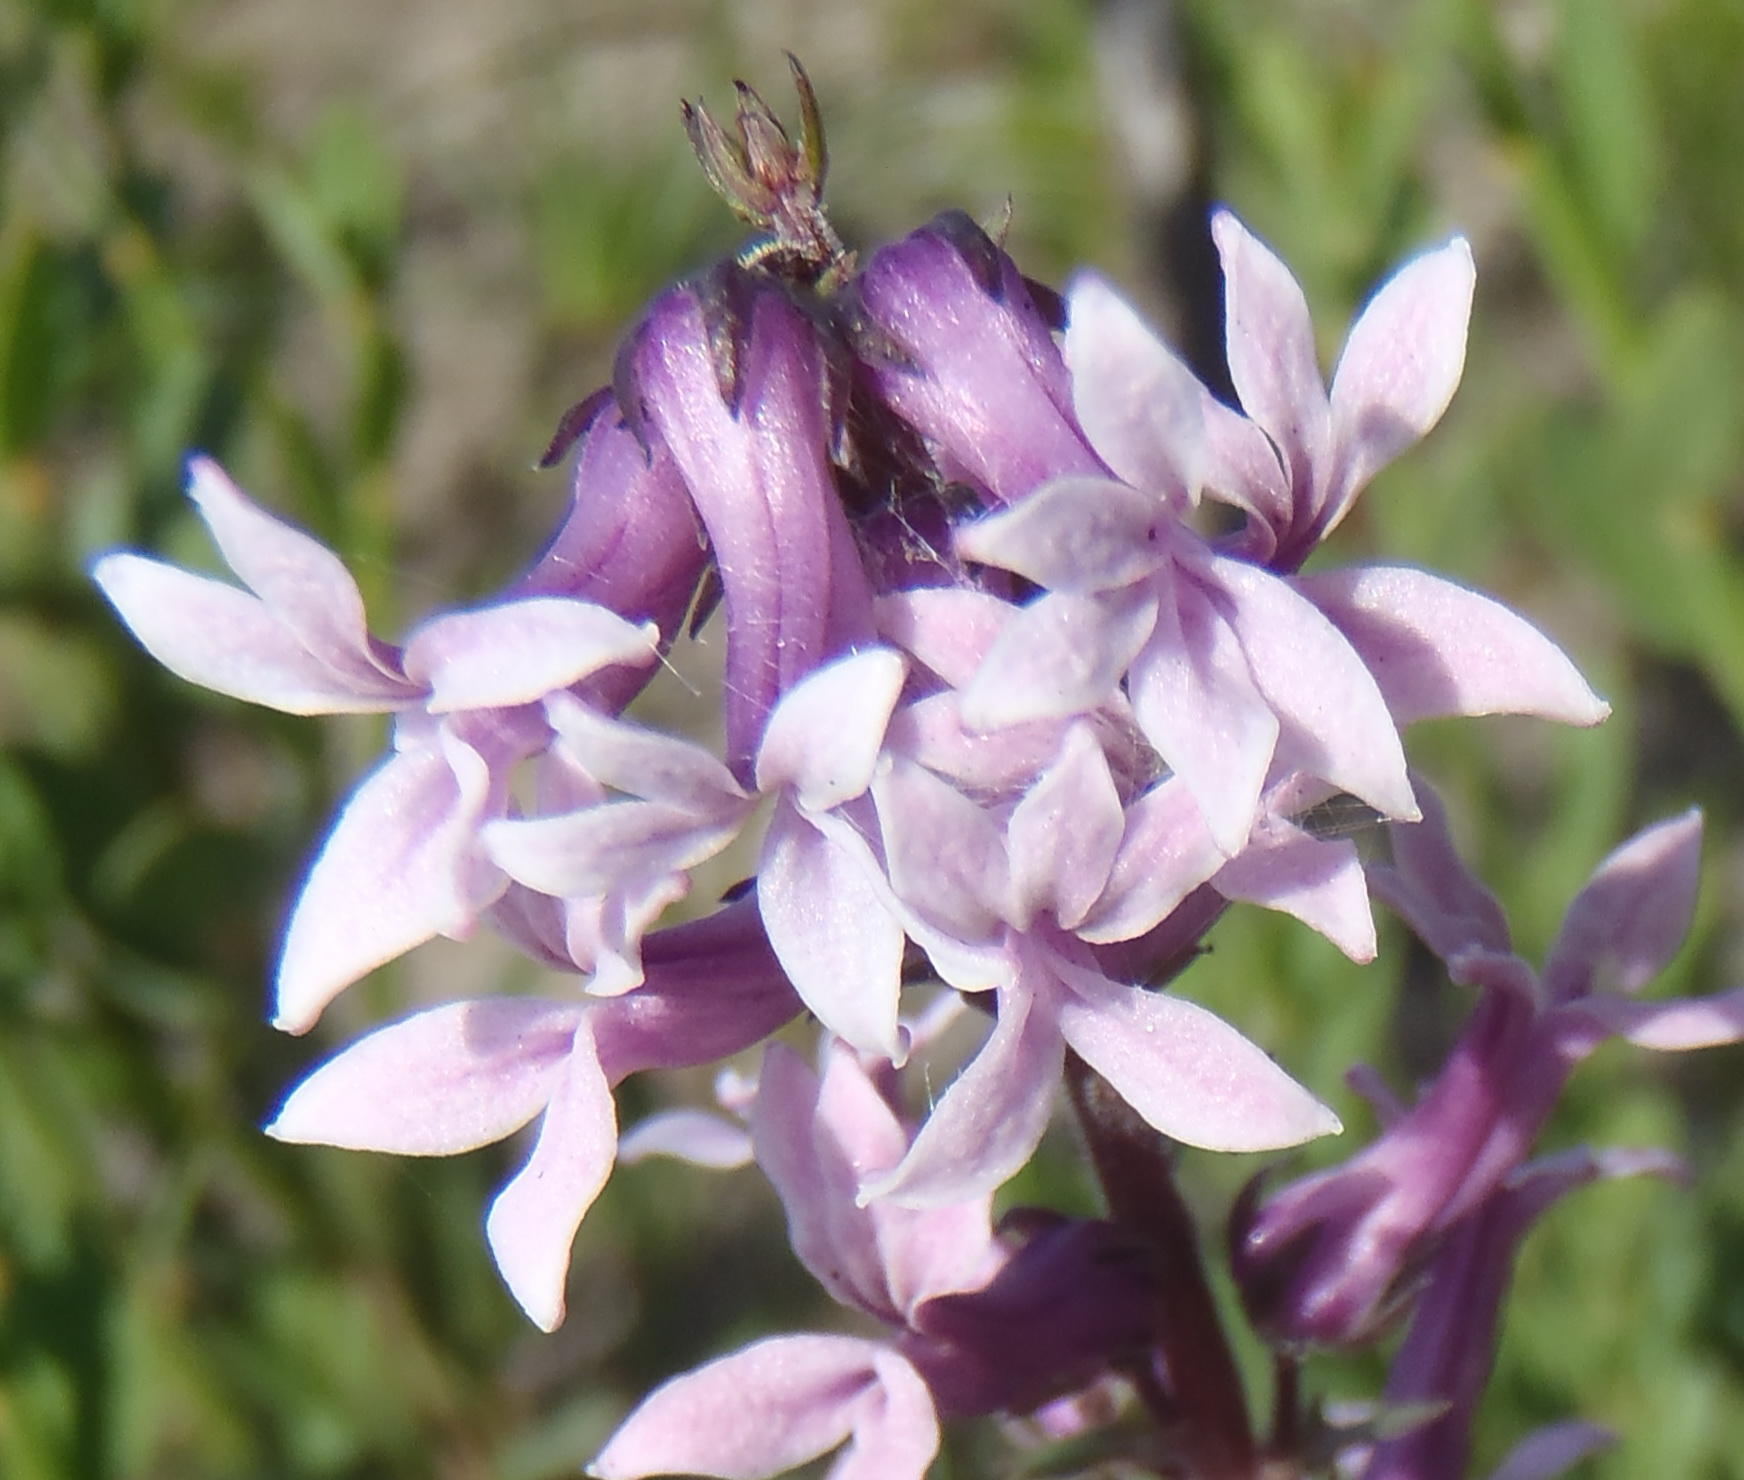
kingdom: Plantae
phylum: Tracheophyta
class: Magnoliopsida
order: Asterales
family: Campanulaceae
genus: Cyphia
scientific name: Cyphia bulbosa
